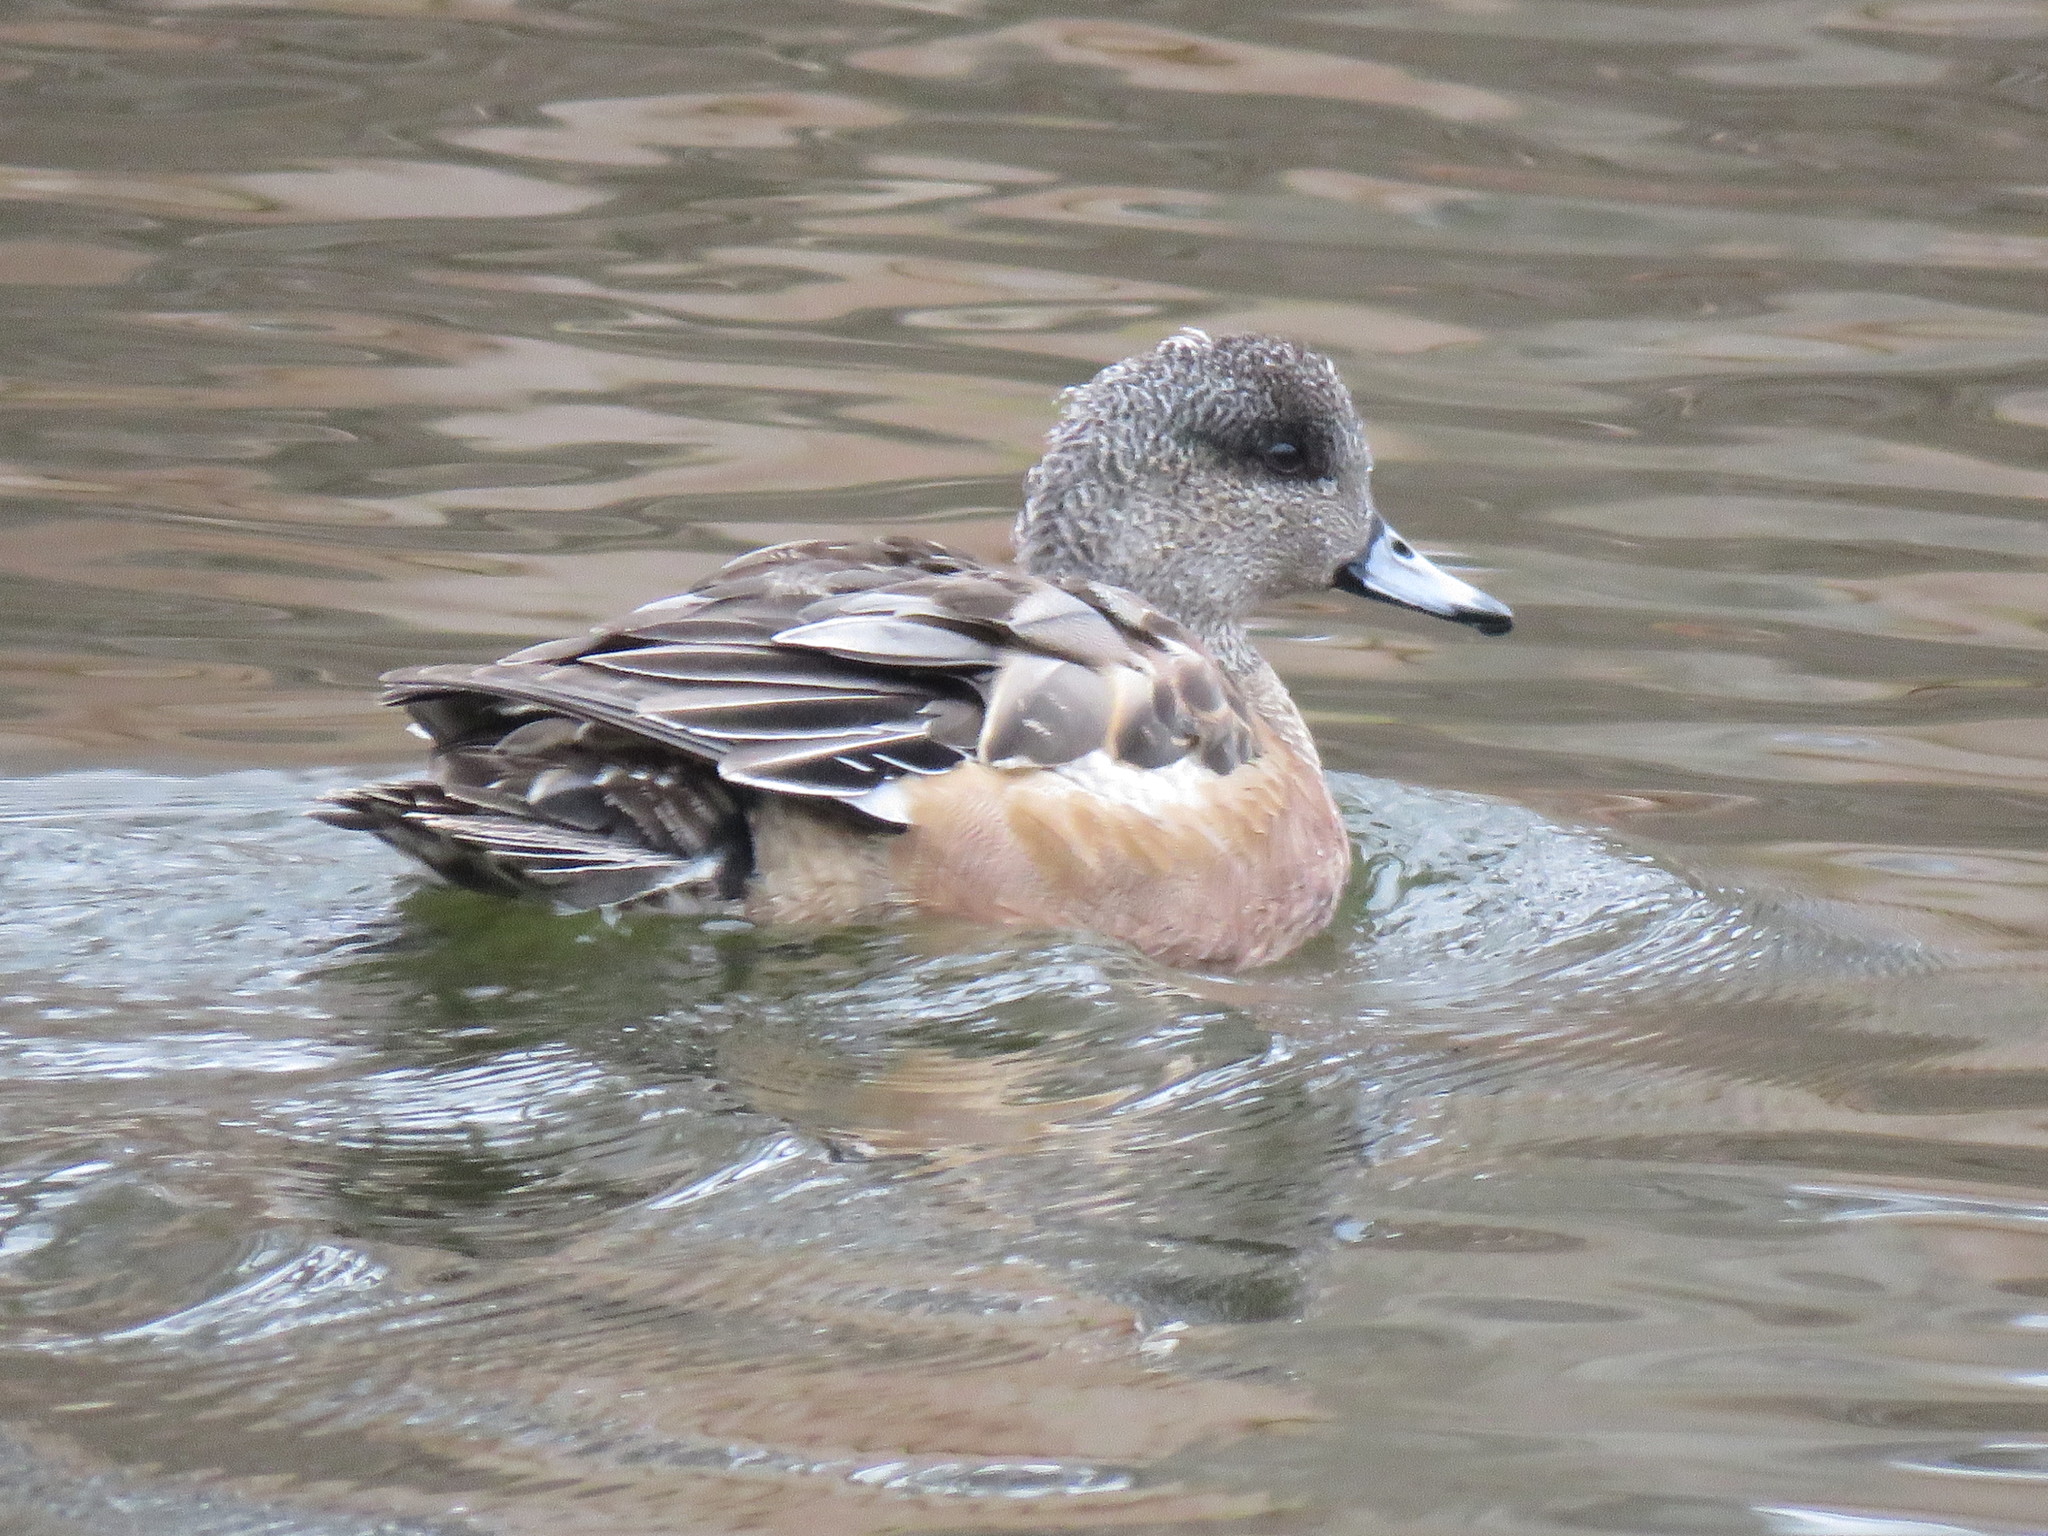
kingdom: Animalia
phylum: Chordata
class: Aves
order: Anseriformes
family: Anatidae
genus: Mareca
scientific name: Mareca americana
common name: American wigeon
